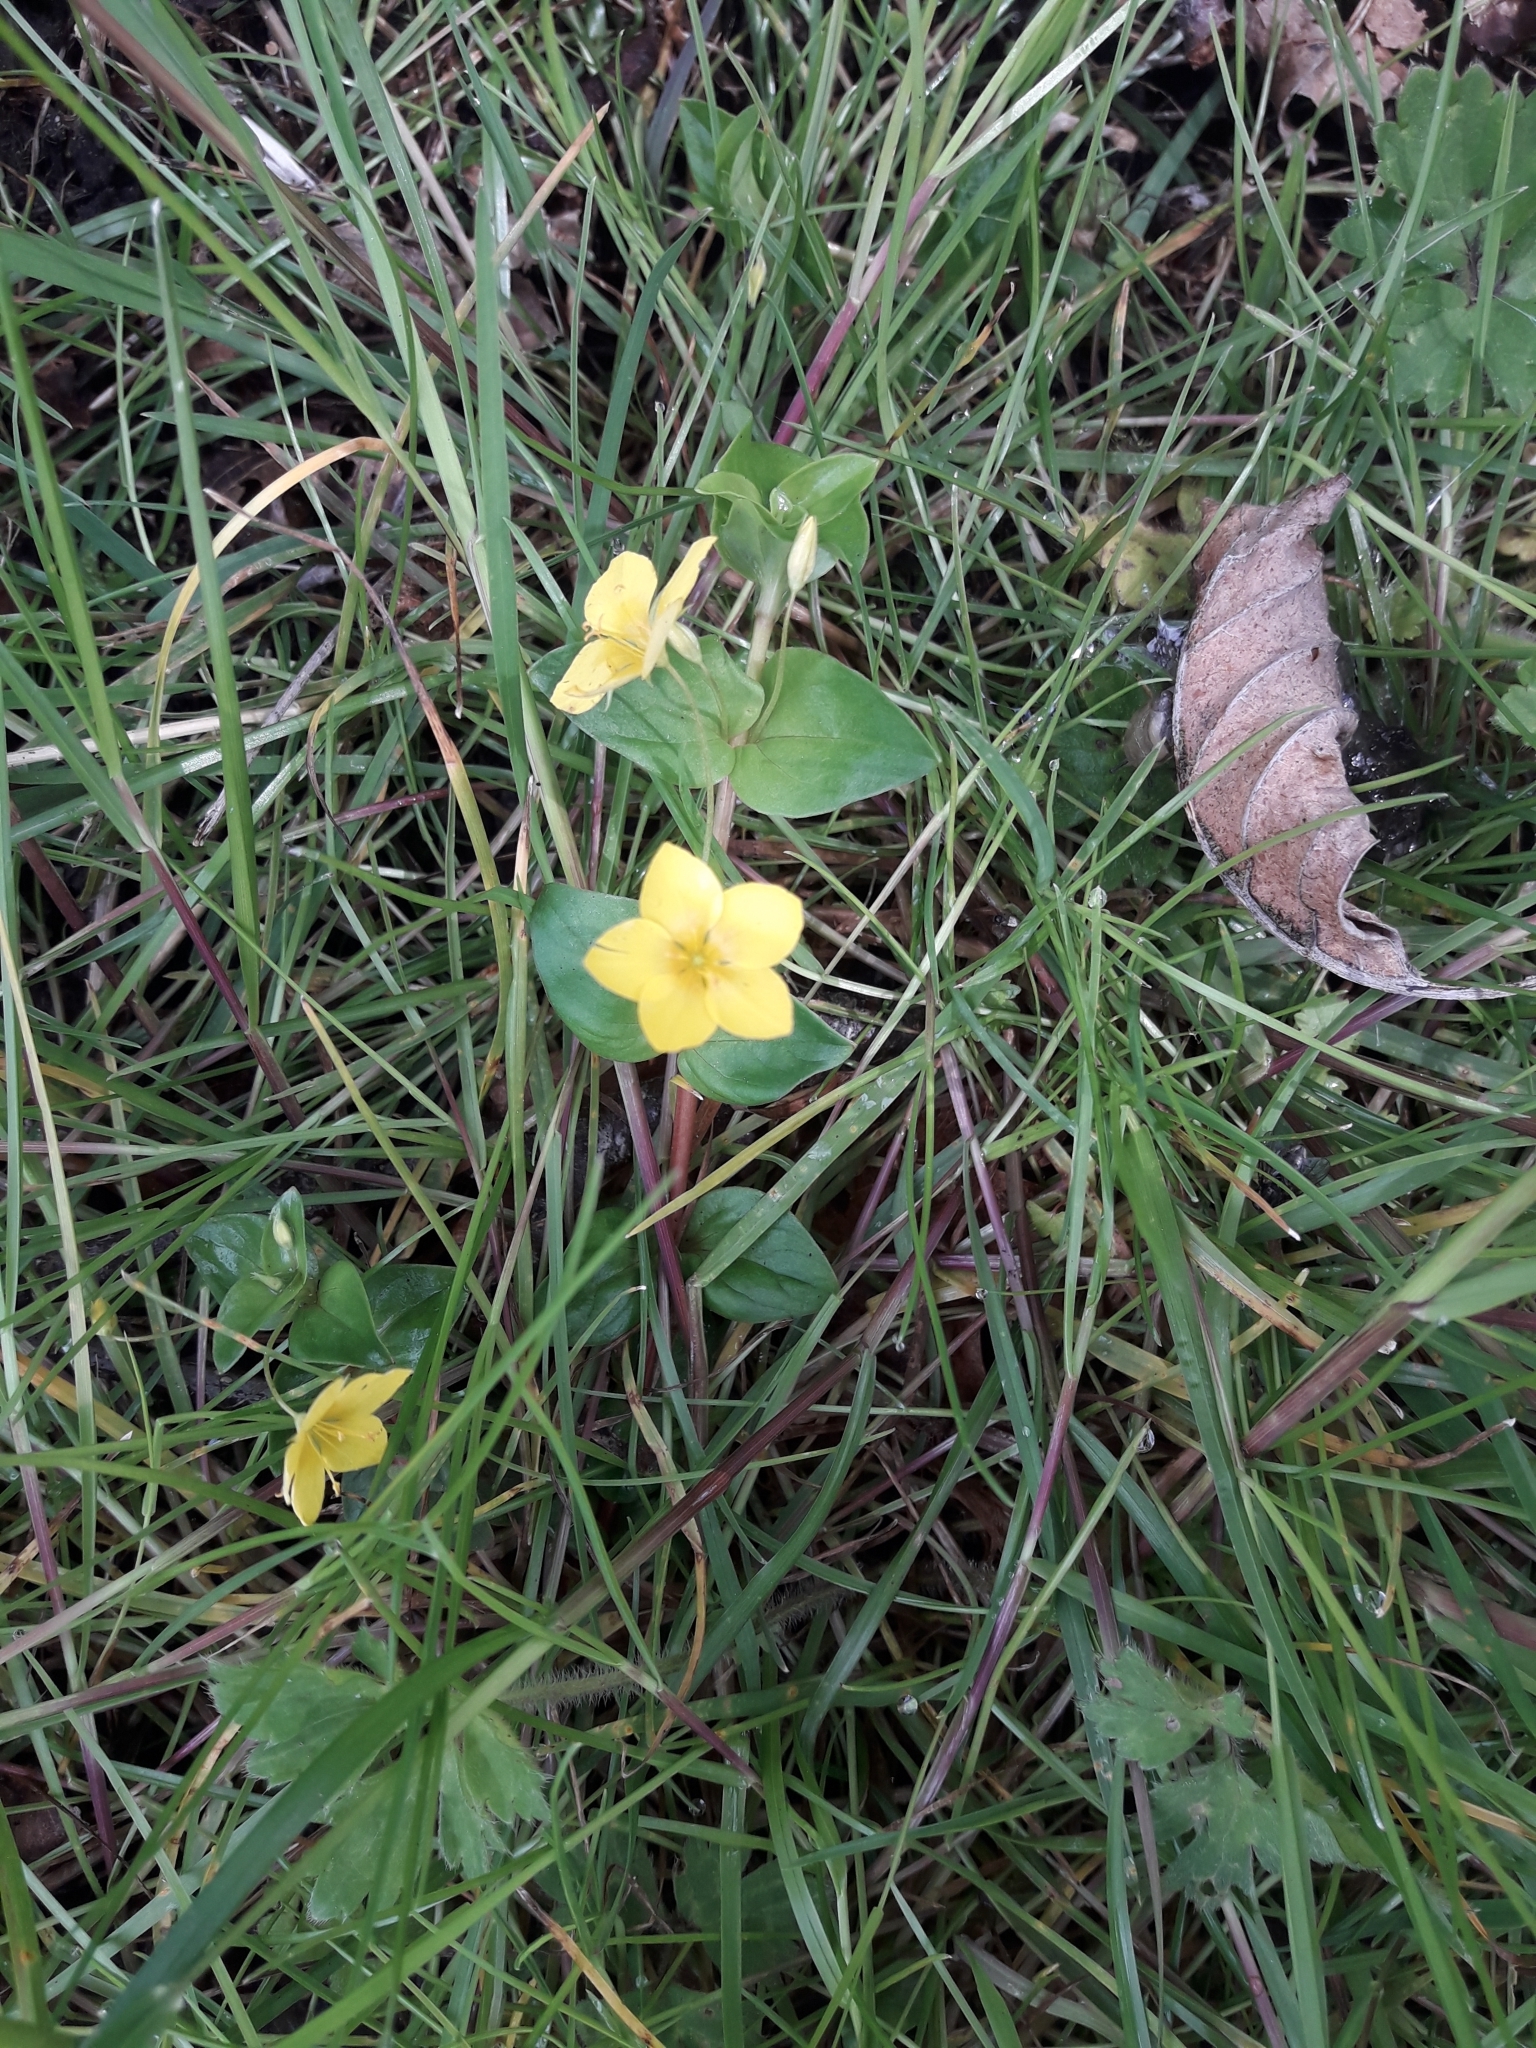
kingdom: Plantae
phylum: Tracheophyta
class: Magnoliopsida
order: Ericales
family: Primulaceae
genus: Lysimachia
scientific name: Lysimachia nemorum
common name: Yellow pimpernel
